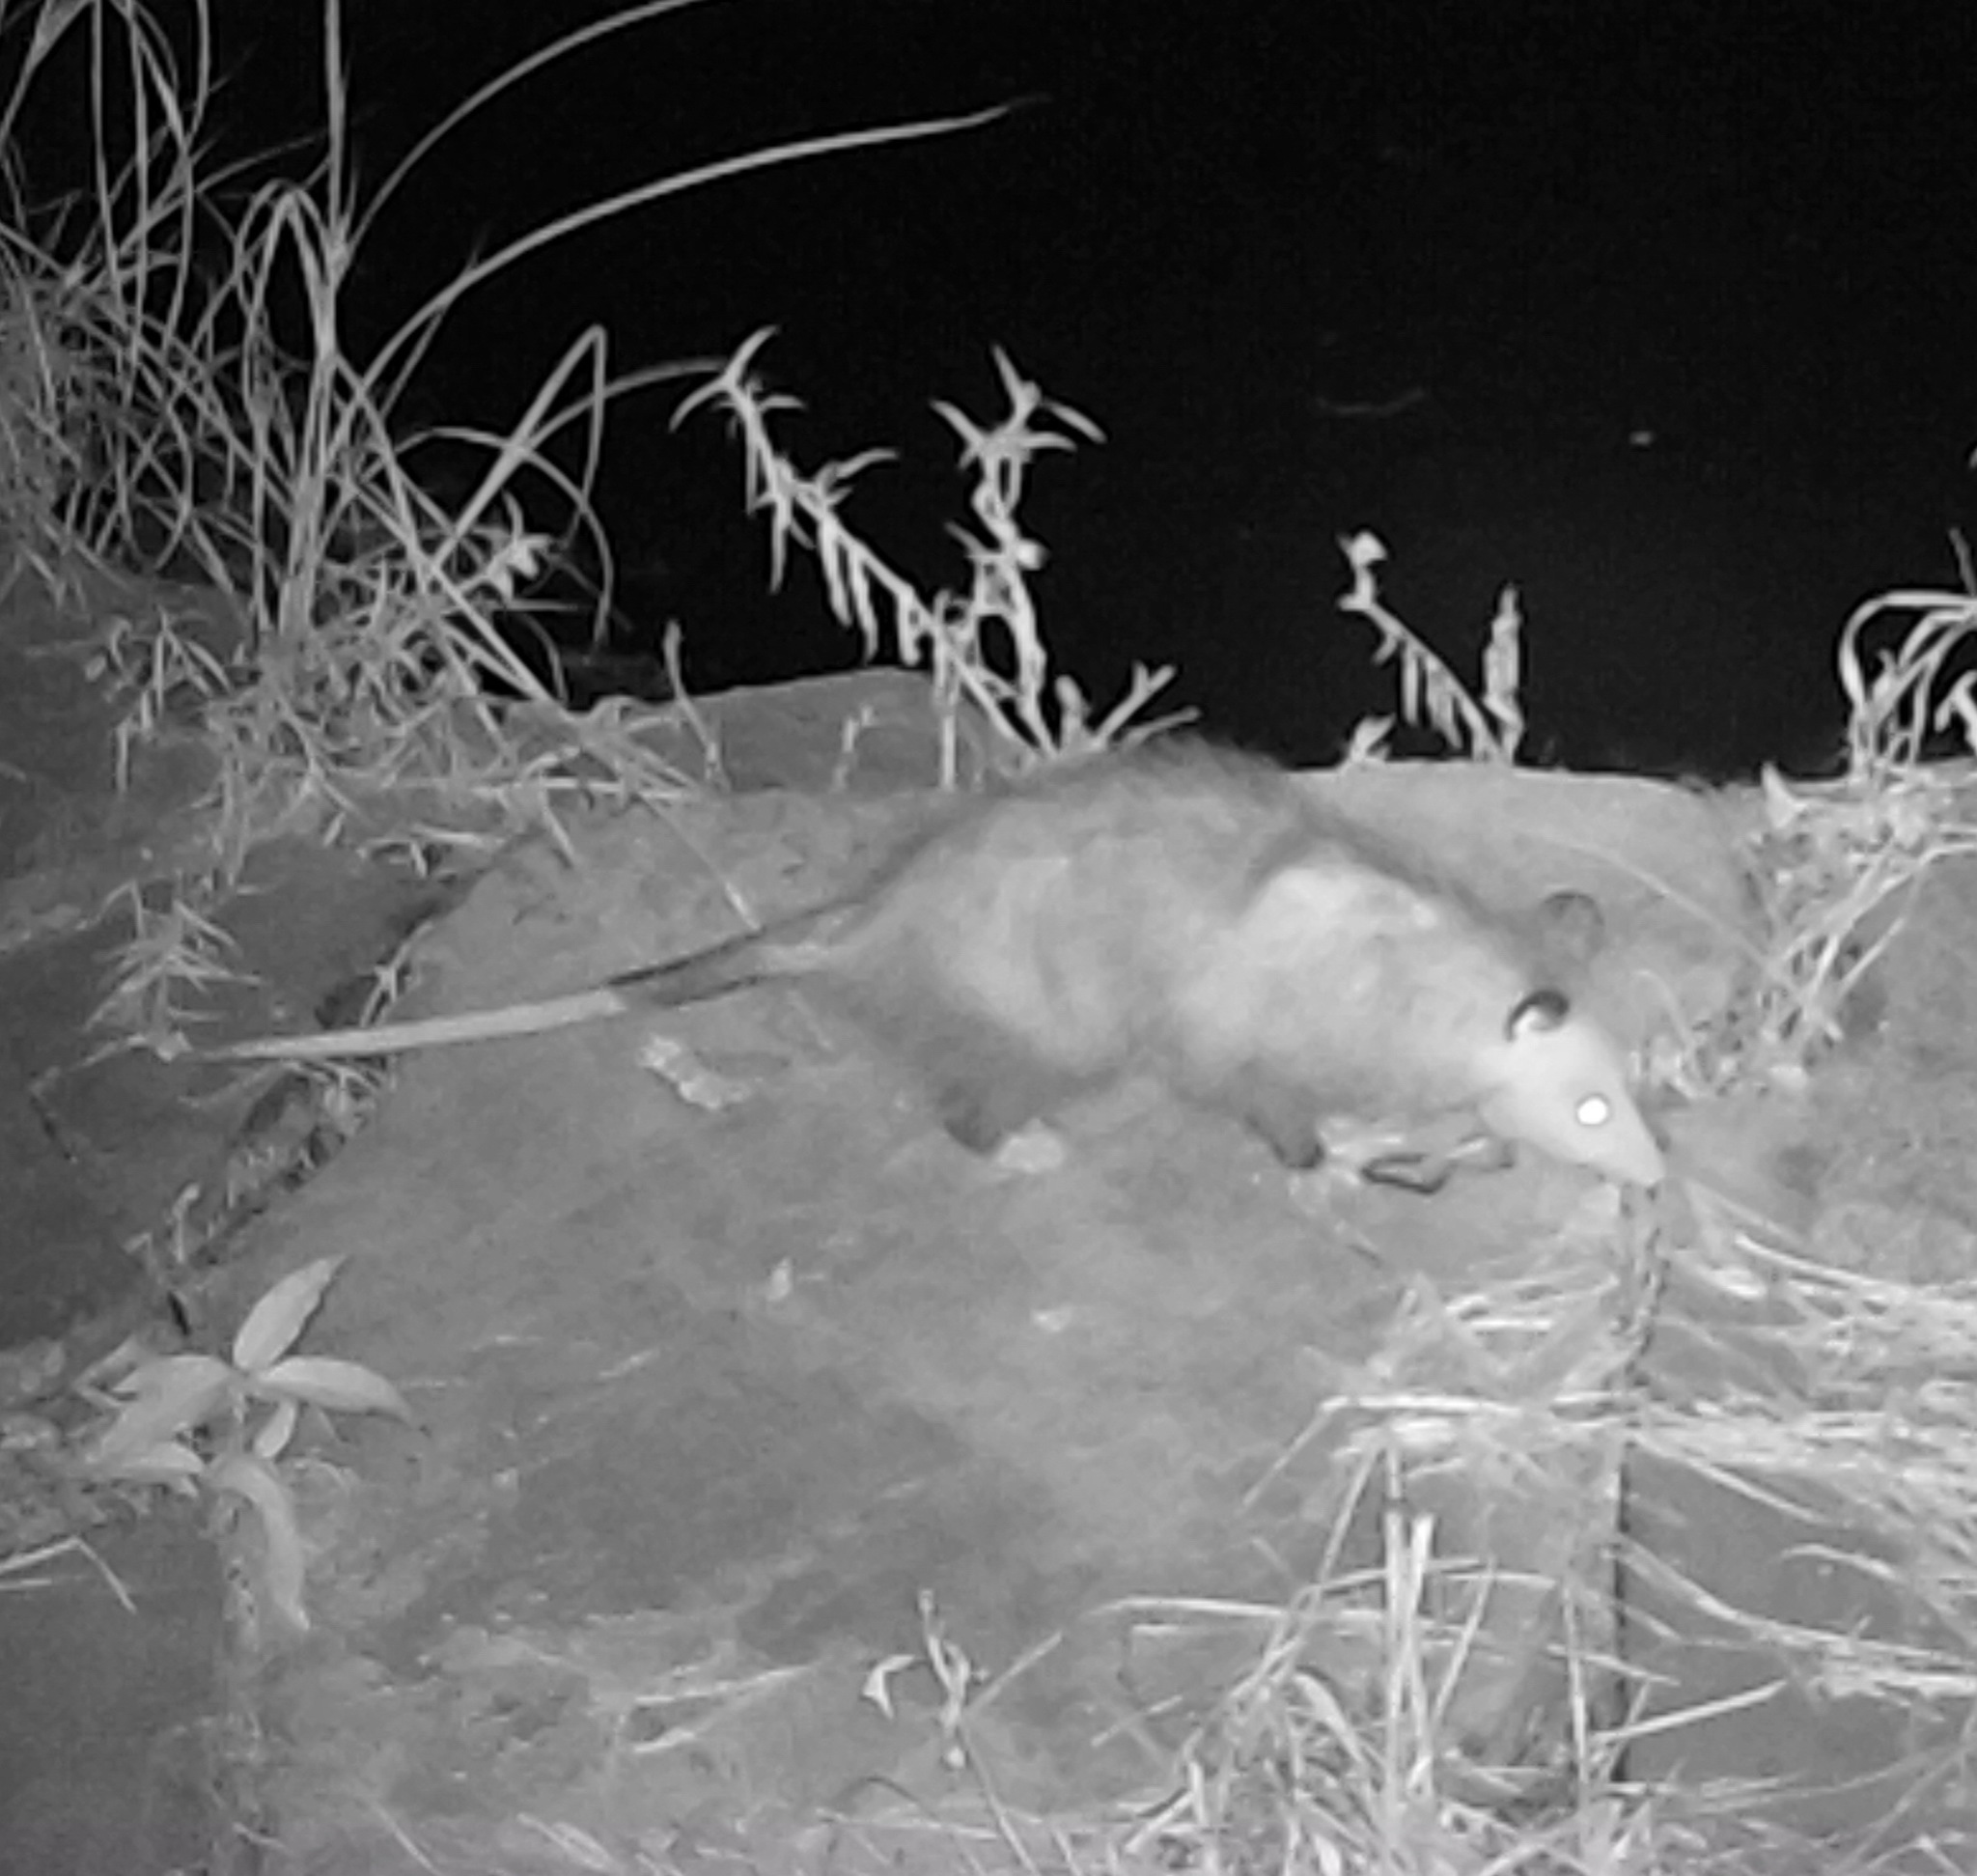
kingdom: Animalia
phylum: Chordata
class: Mammalia
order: Didelphimorphia
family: Didelphidae
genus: Didelphis
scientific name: Didelphis virginiana
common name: Virginia opossum
